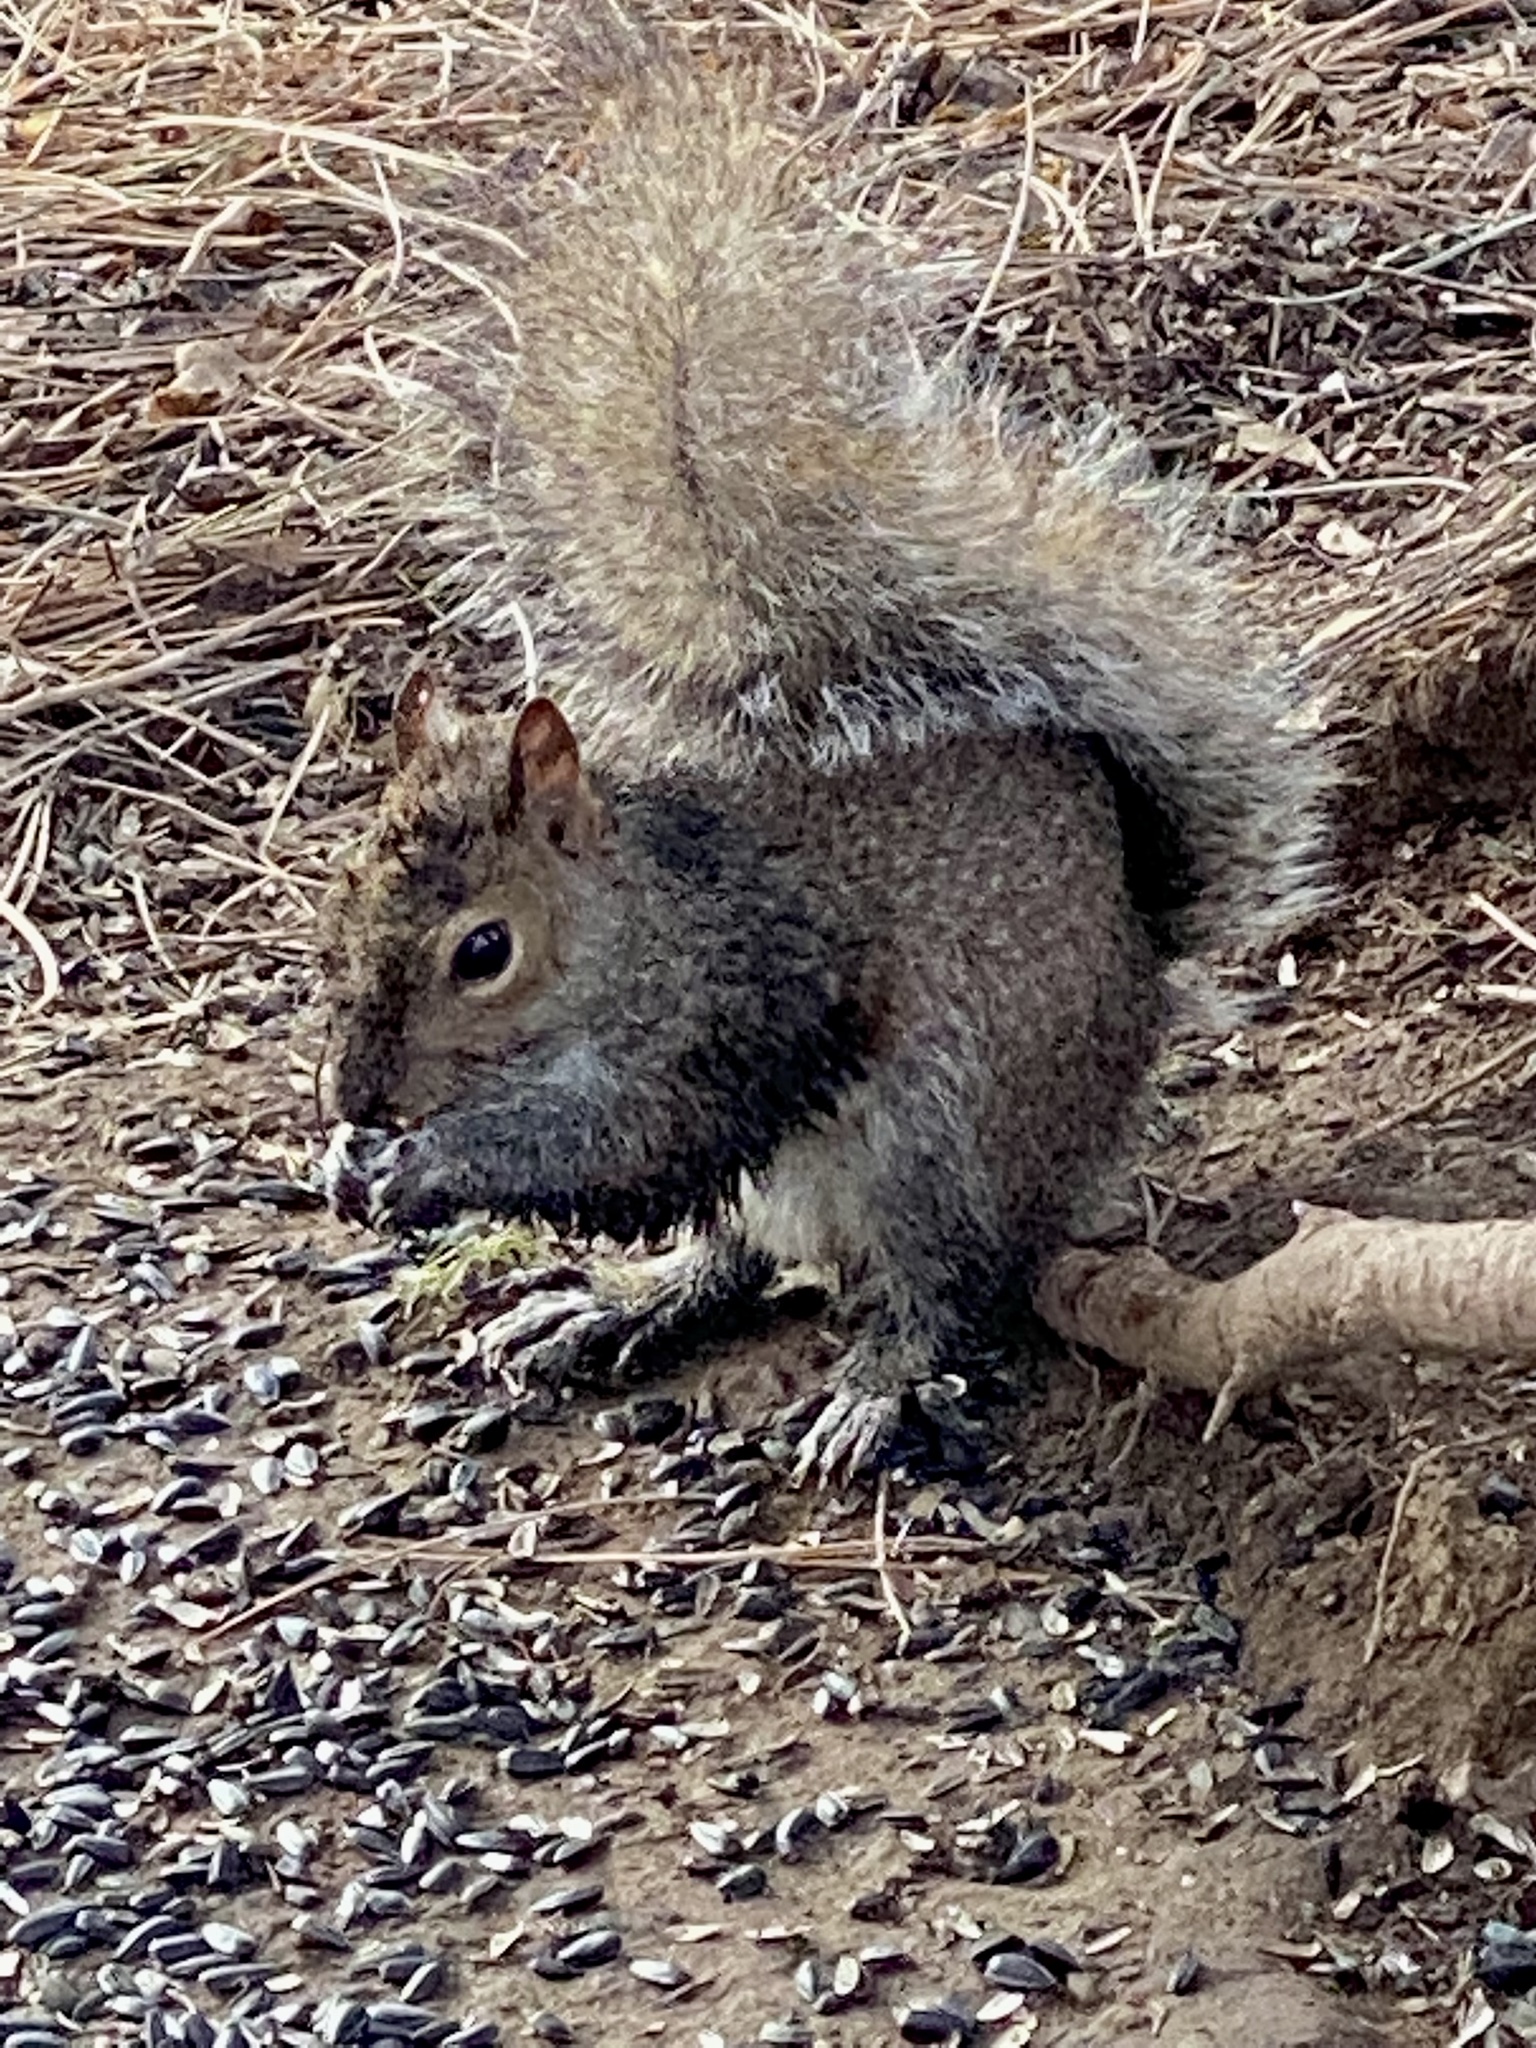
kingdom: Animalia
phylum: Chordata
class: Mammalia
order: Rodentia
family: Sciuridae
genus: Sciurus
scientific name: Sciurus carolinensis
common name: Eastern gray squirrel
